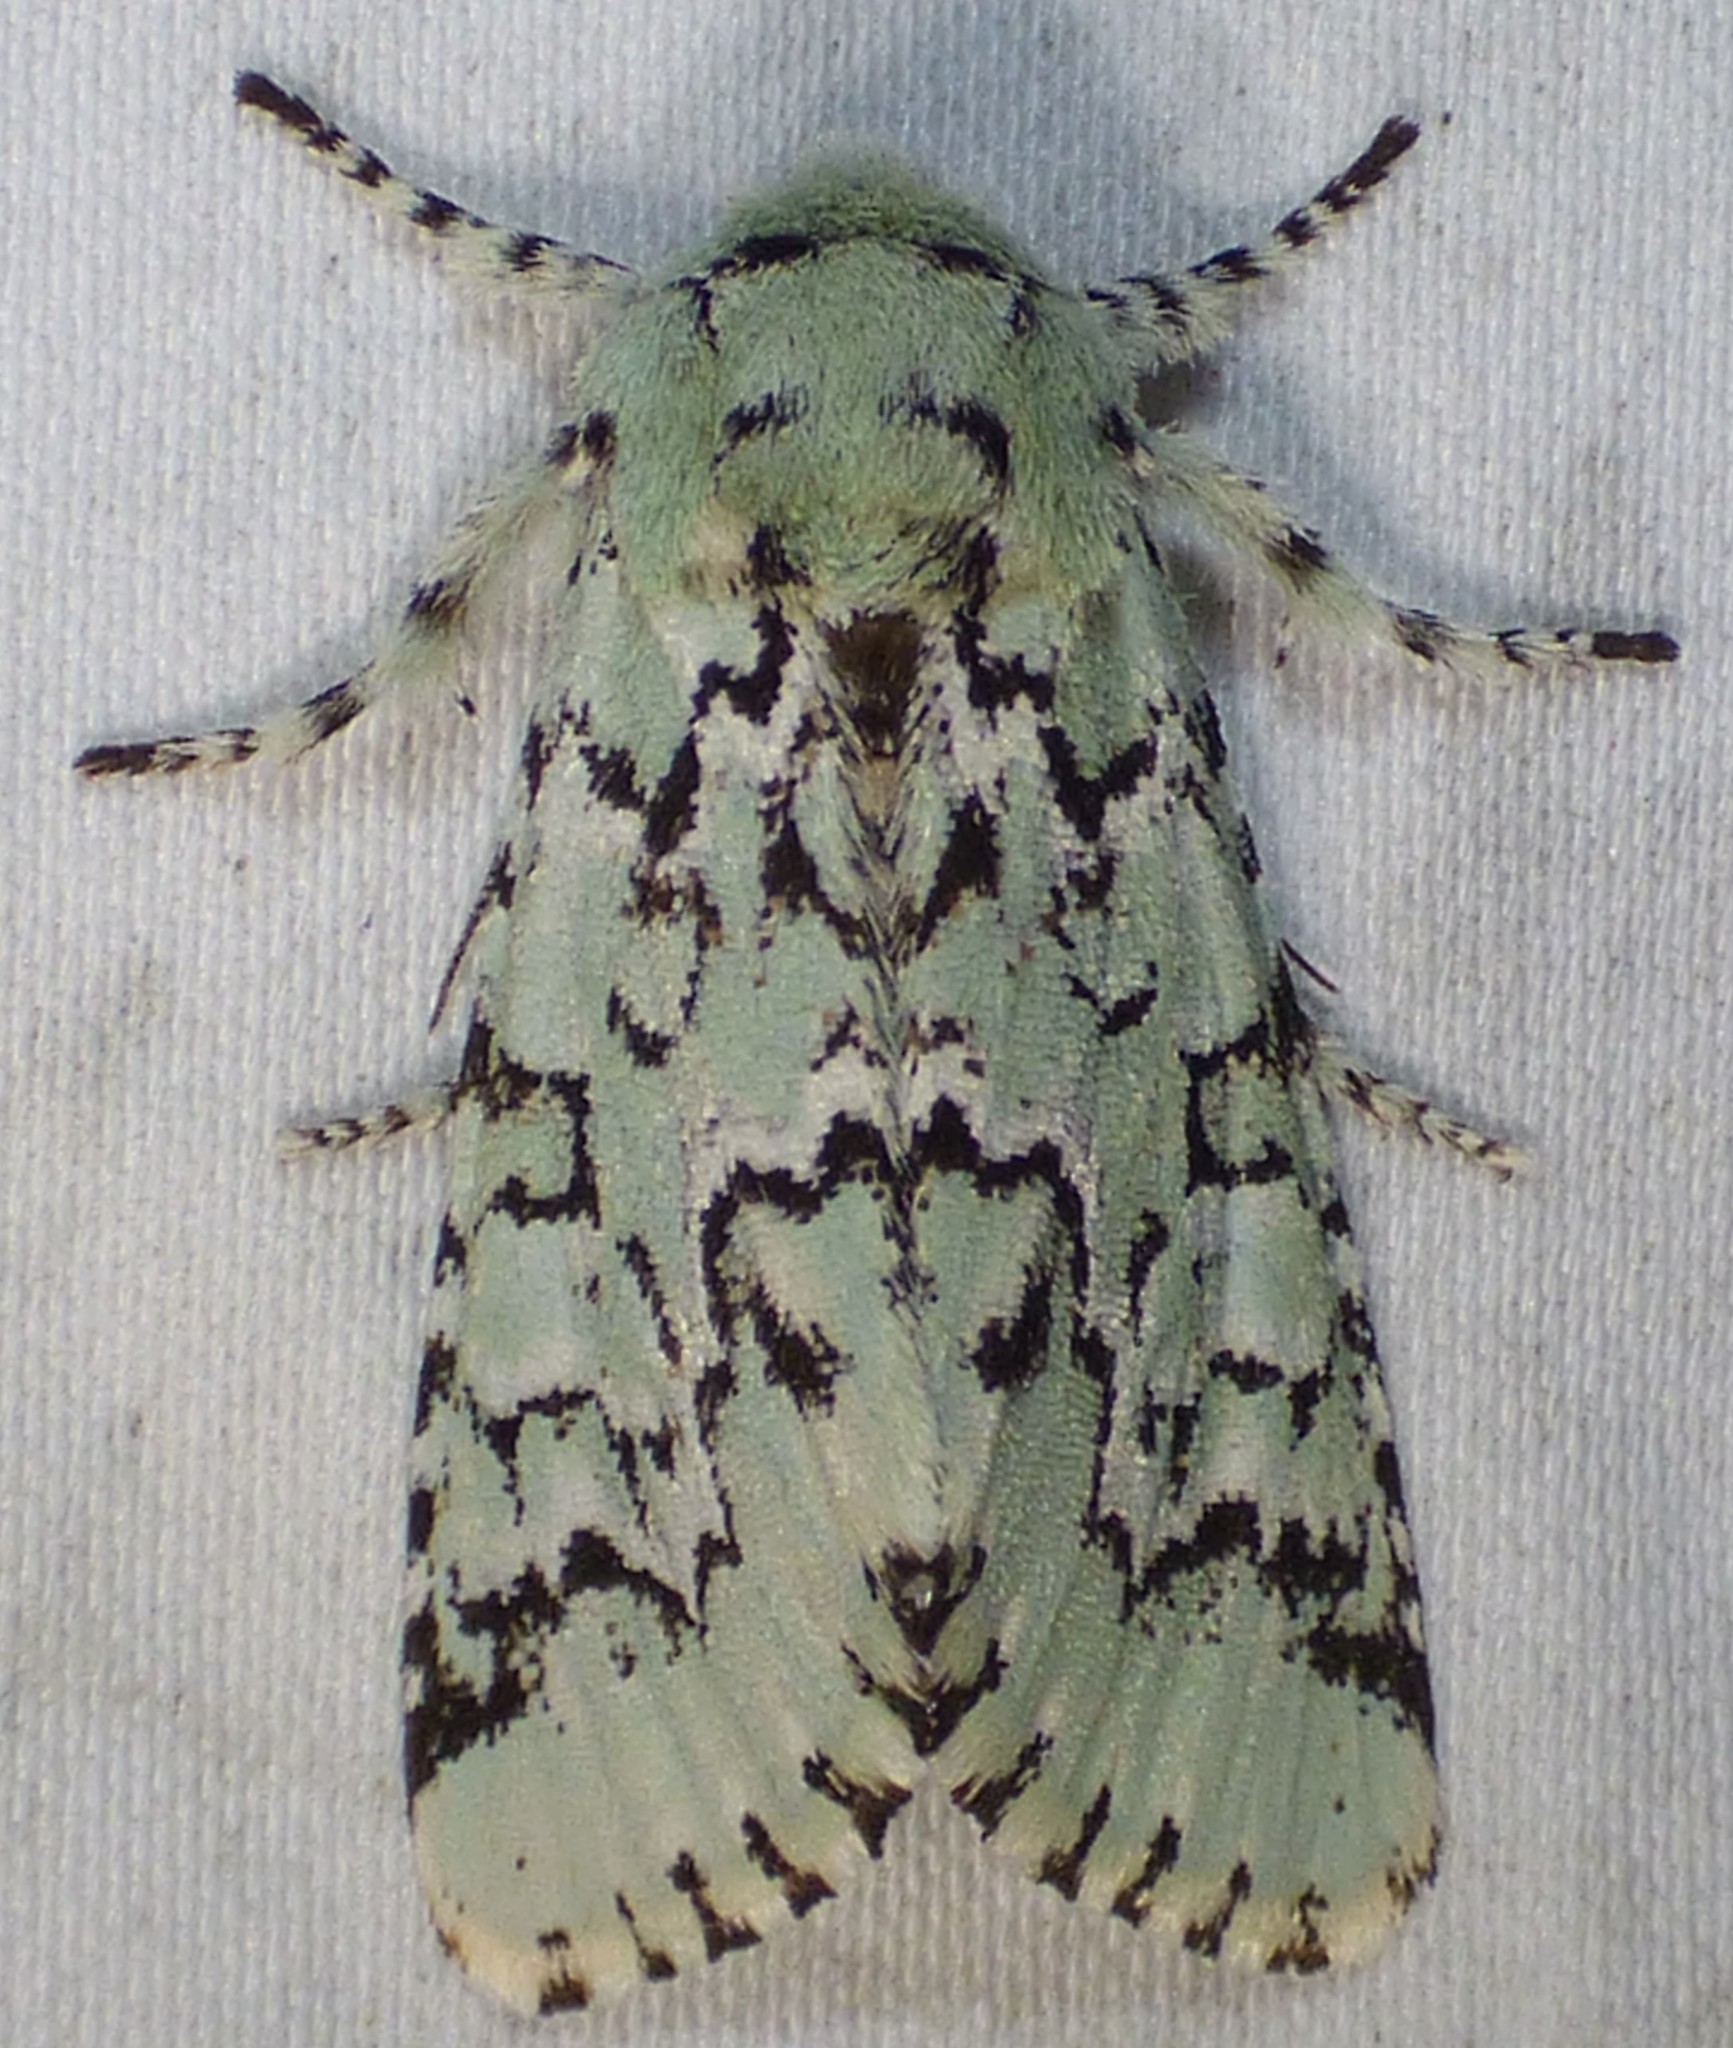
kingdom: Animalia
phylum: Arthropoda
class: Insecta
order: Lepidoptera
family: Noctuidae
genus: Feralia
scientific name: Feralia major
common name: Major sallow
